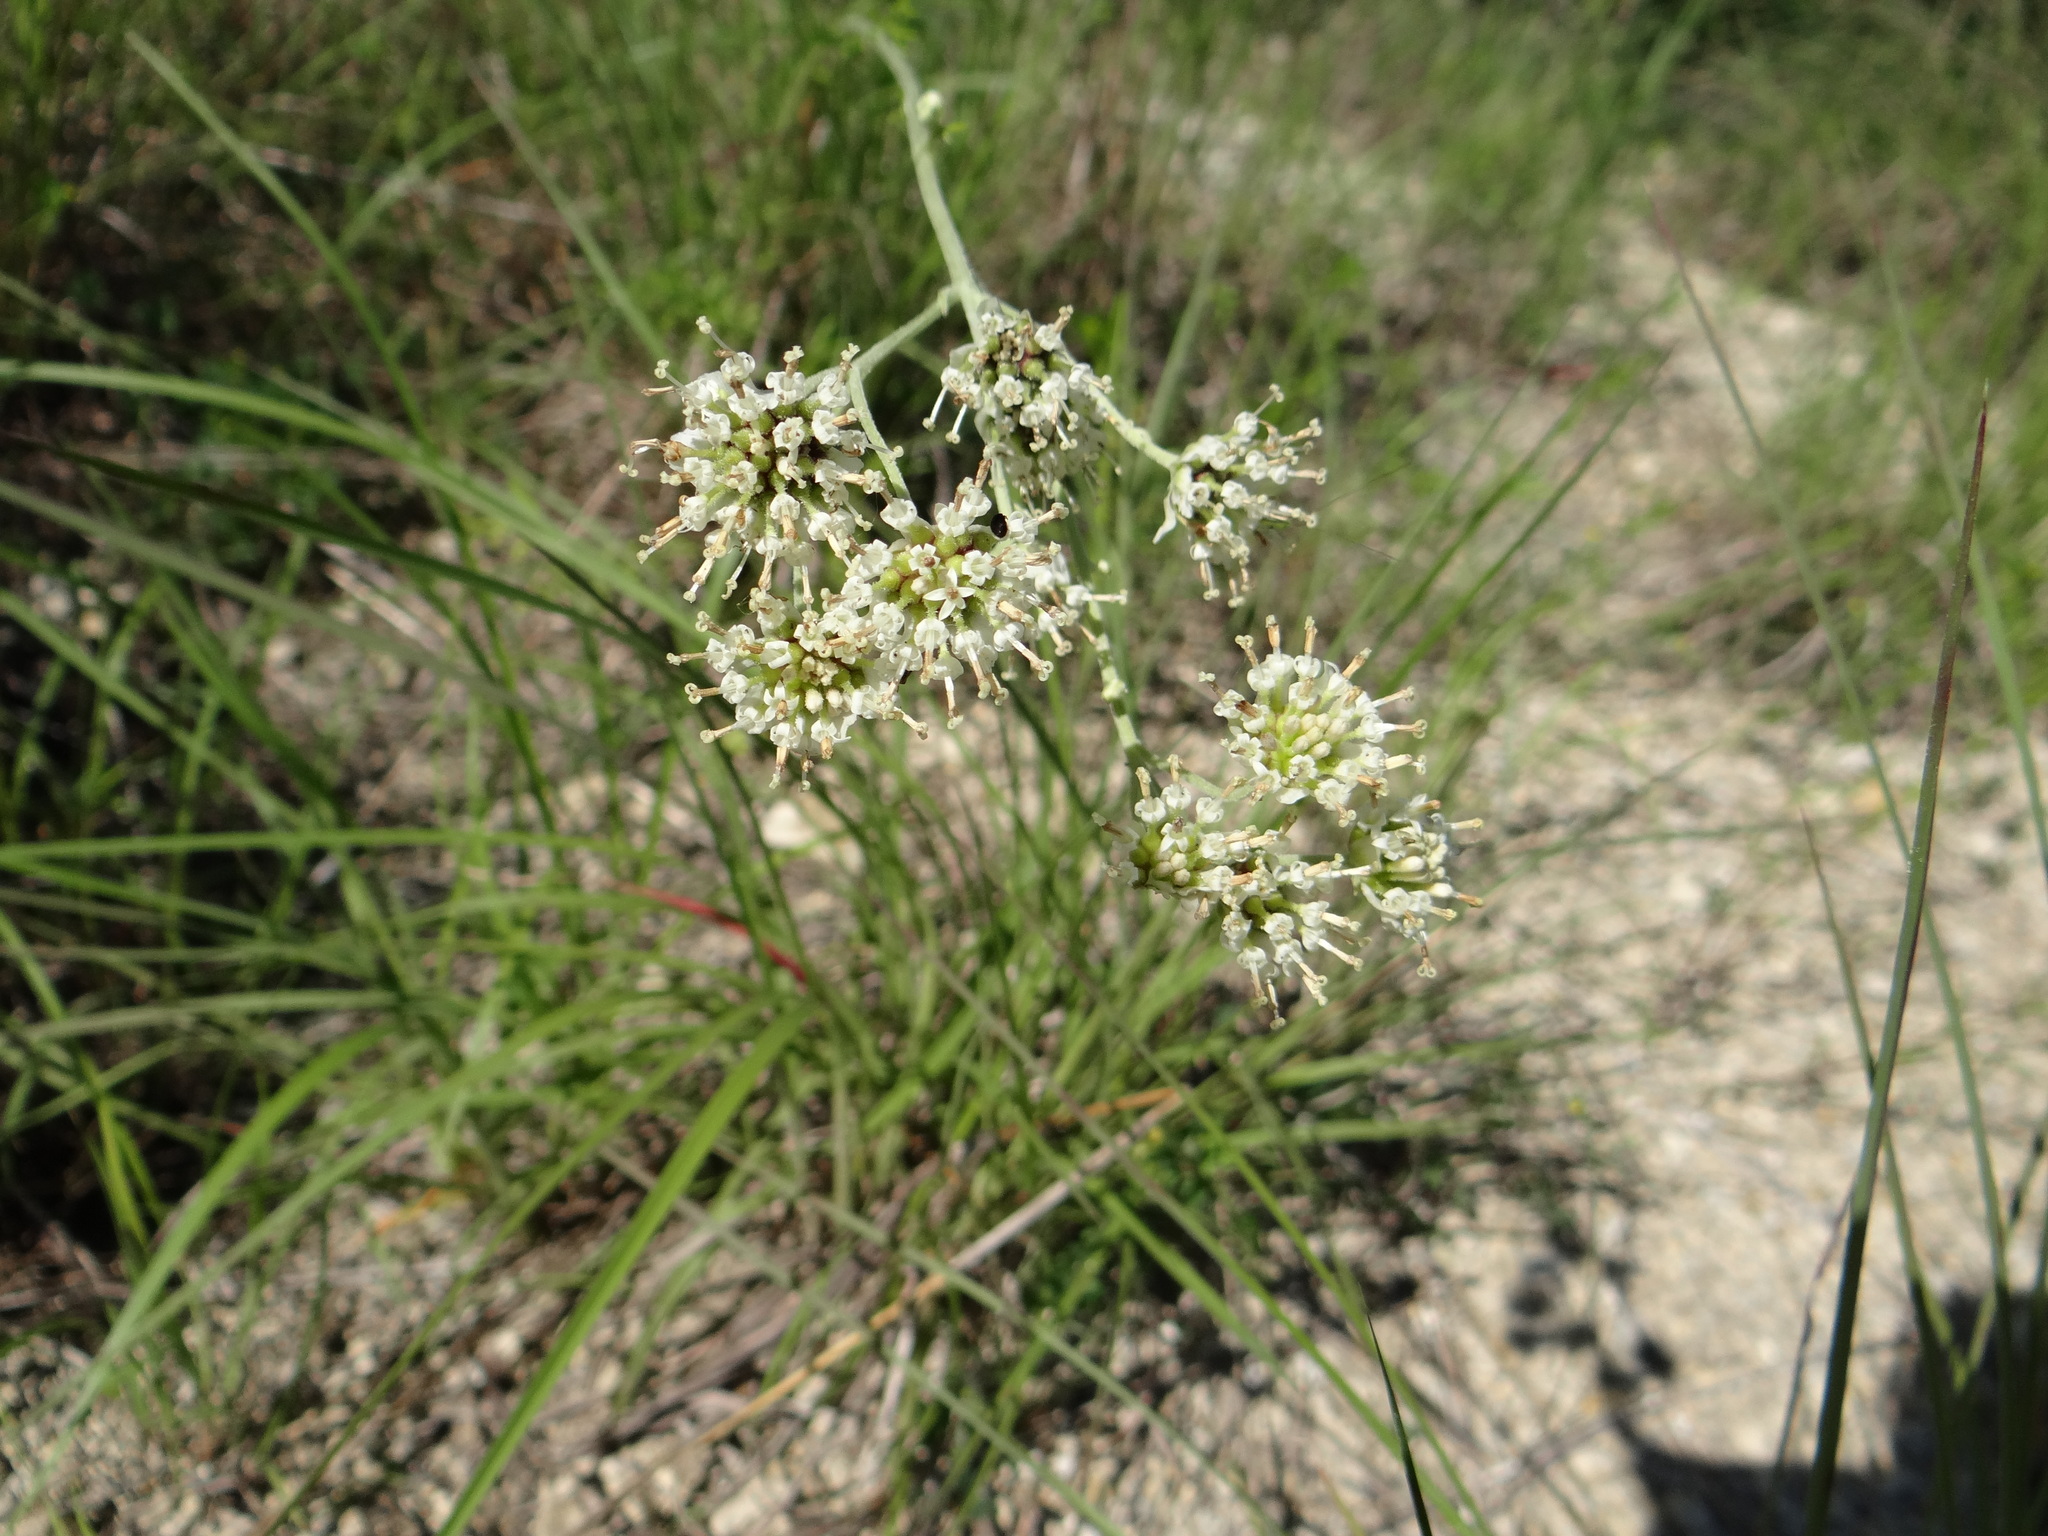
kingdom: Plantae
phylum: Tracheophyta
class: Magnoliopsida
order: Asterales
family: Asteraceae
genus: Hymenopappus
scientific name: Hymenopappus scabiosaeus
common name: Carolina woollywhite
